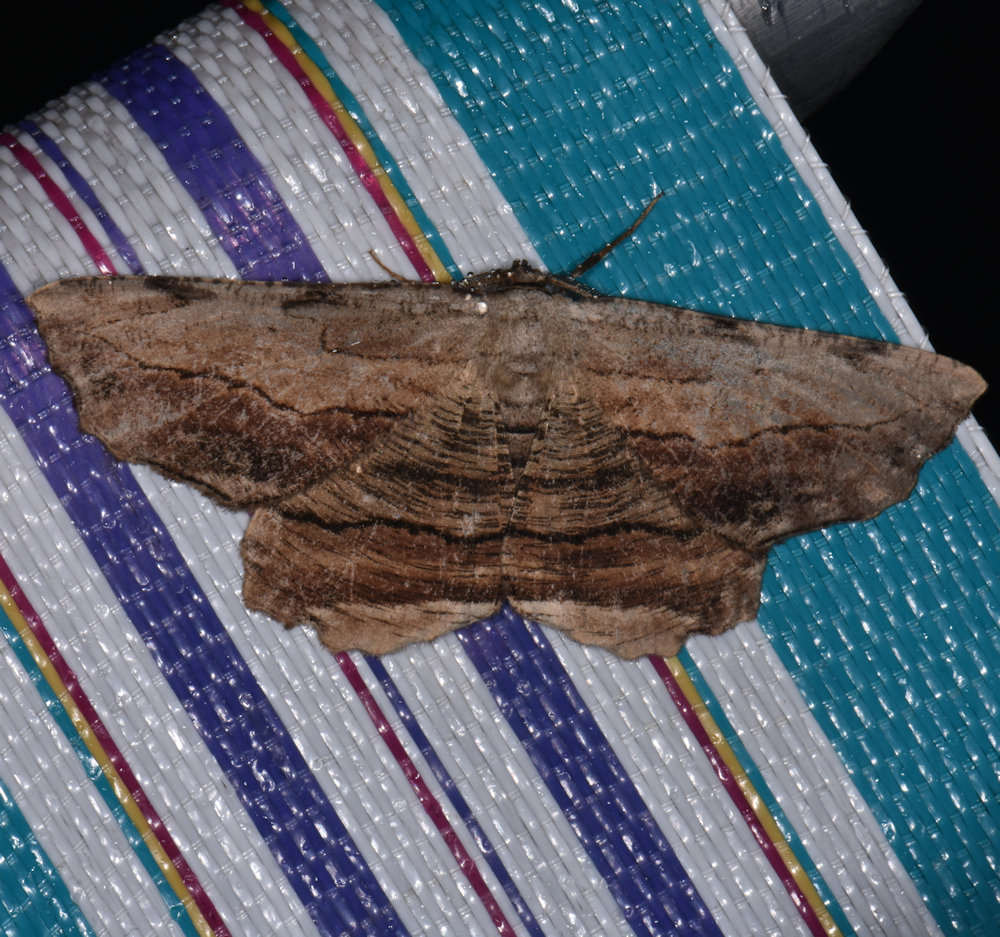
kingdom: Animalia
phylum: Arthropoda
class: Insecta
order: Lepidoptera
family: Geometridae
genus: Lytrosis
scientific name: Lytrosis unitaria
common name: Common lytrosis
